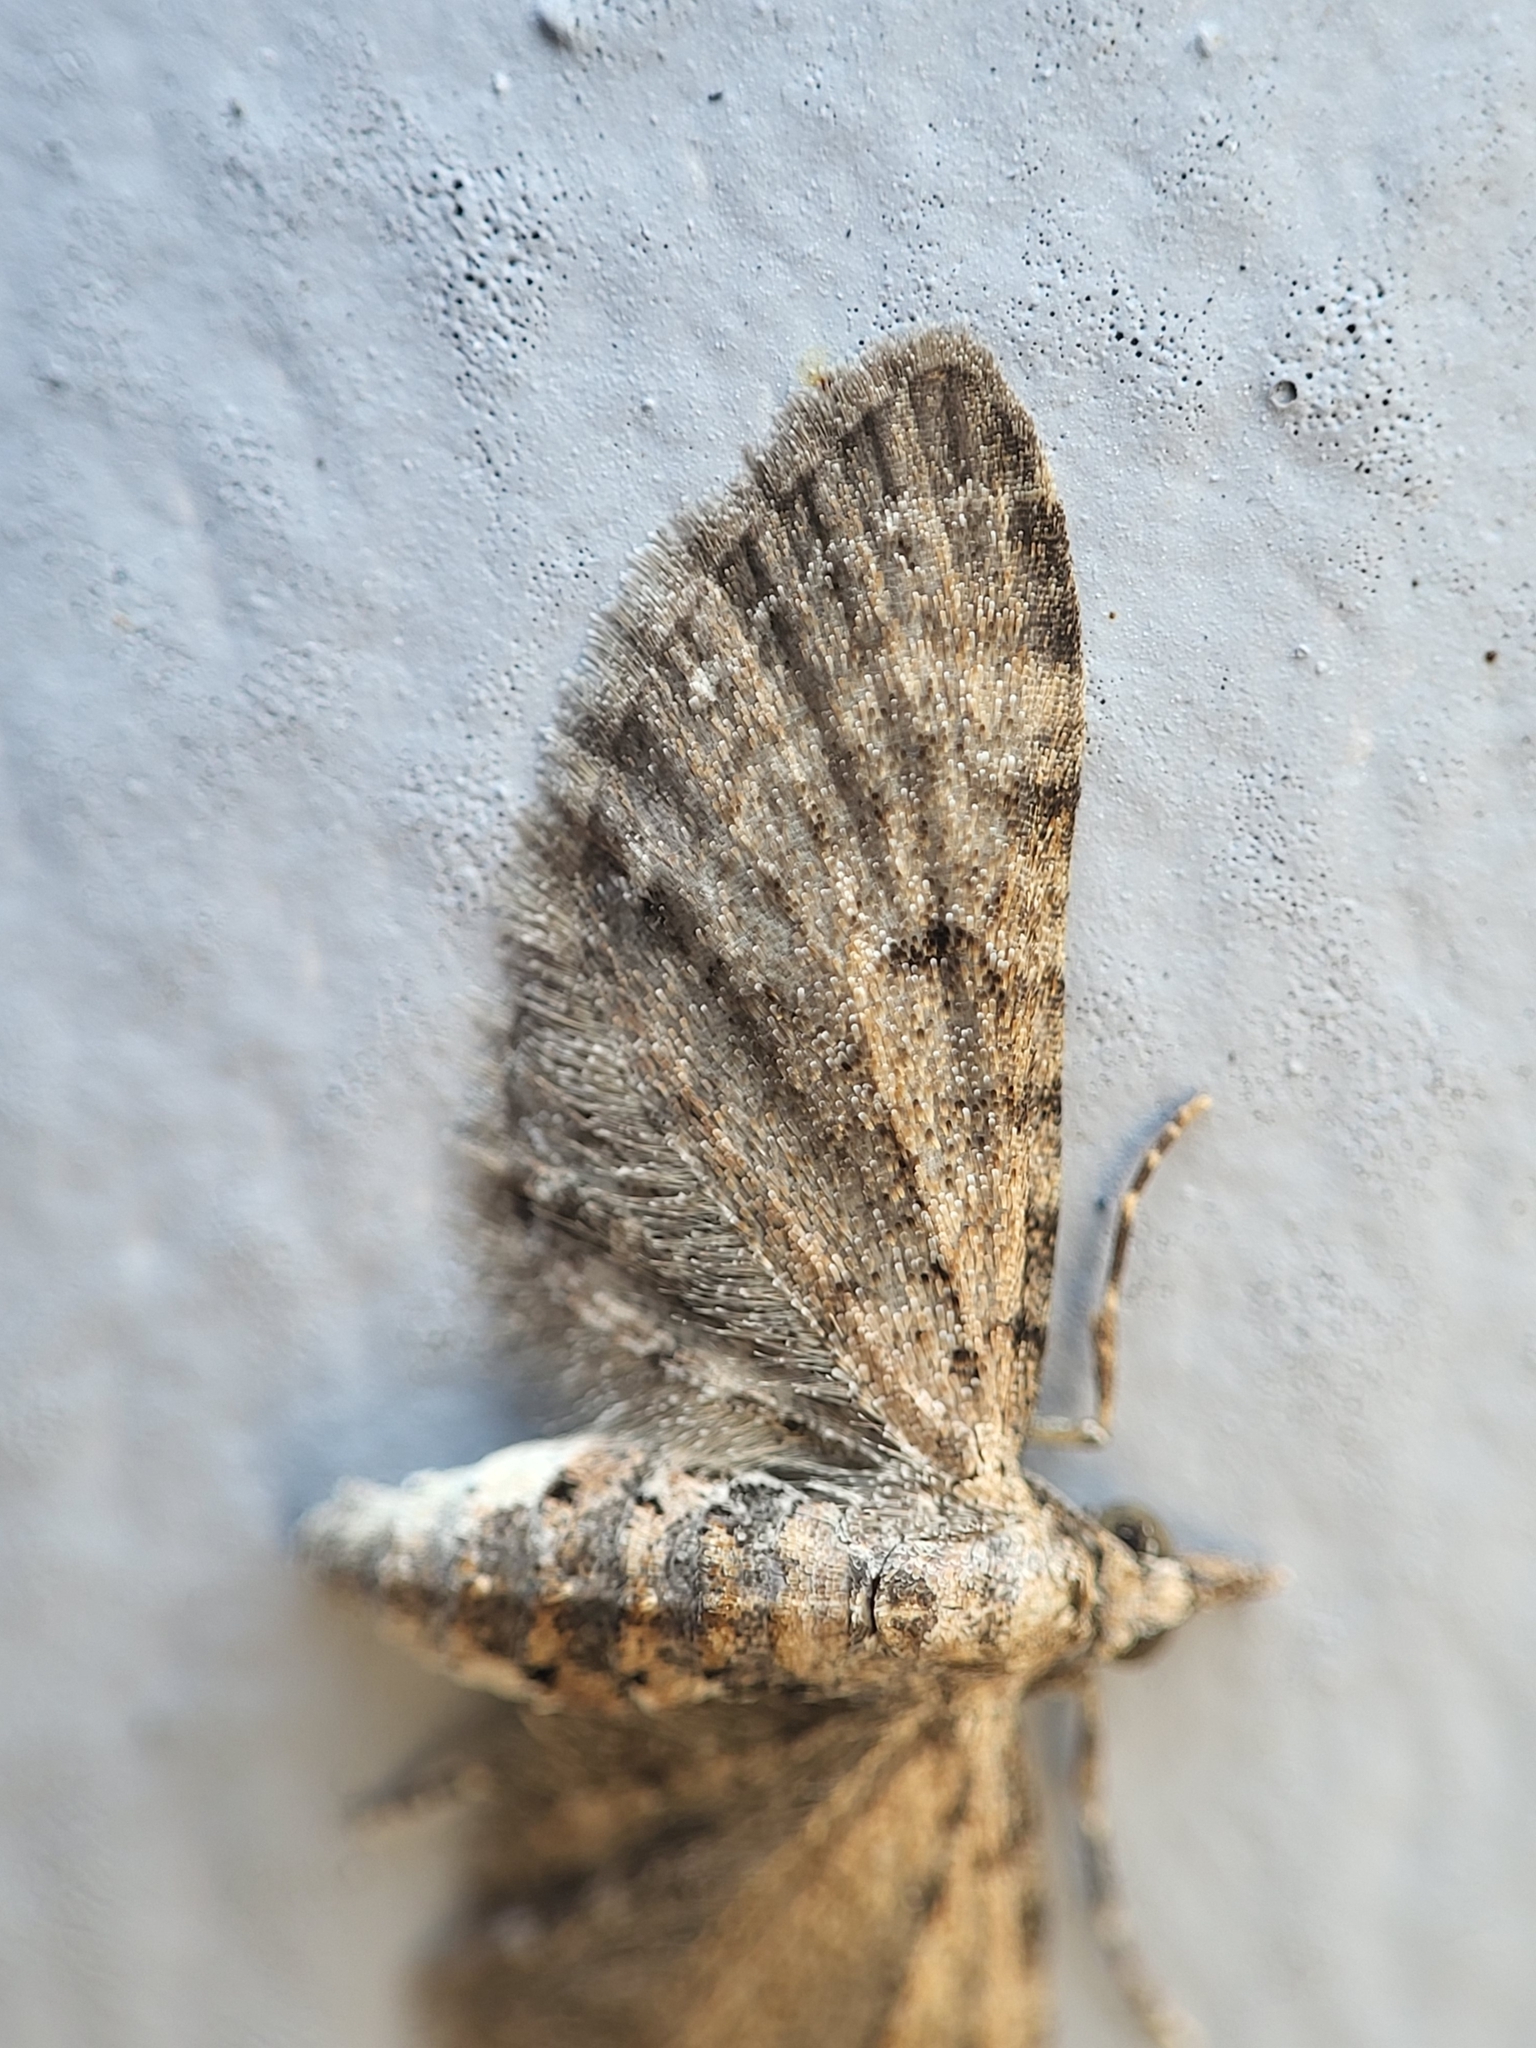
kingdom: Animalia
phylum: Arthropoda
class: Insecta
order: Lepidoptera
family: Geometridae
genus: Eupithecia
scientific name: Eupithecia miserulata
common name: Common eupithecia
